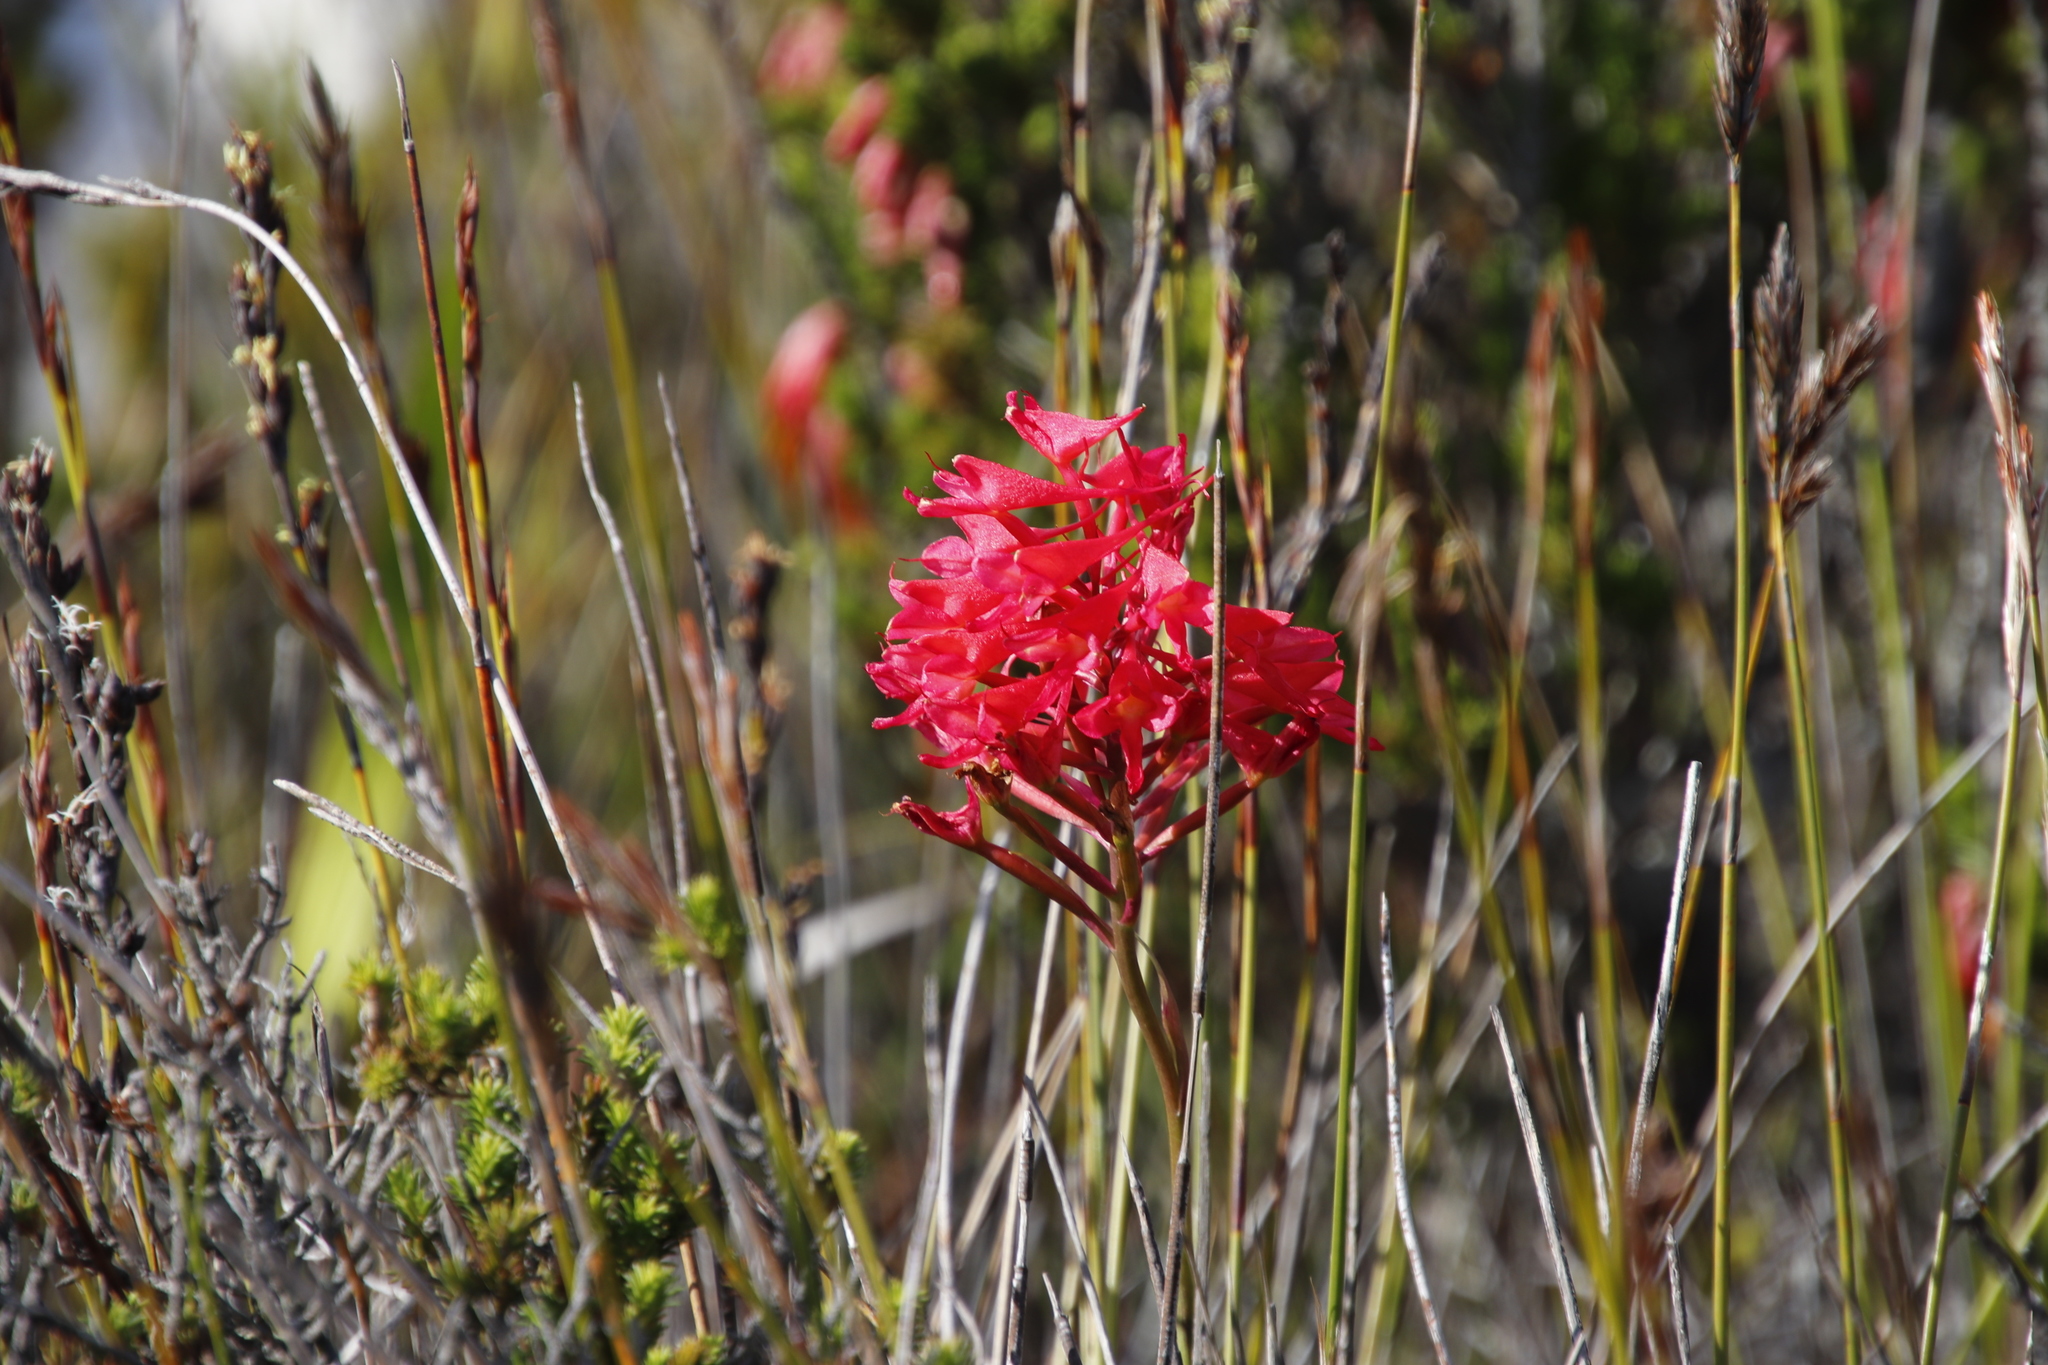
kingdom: Plantae
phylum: Tracheophyta
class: Liliopsida
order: Asparagales
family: Orchidaceae
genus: Disa
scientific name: Disa ferruginea
